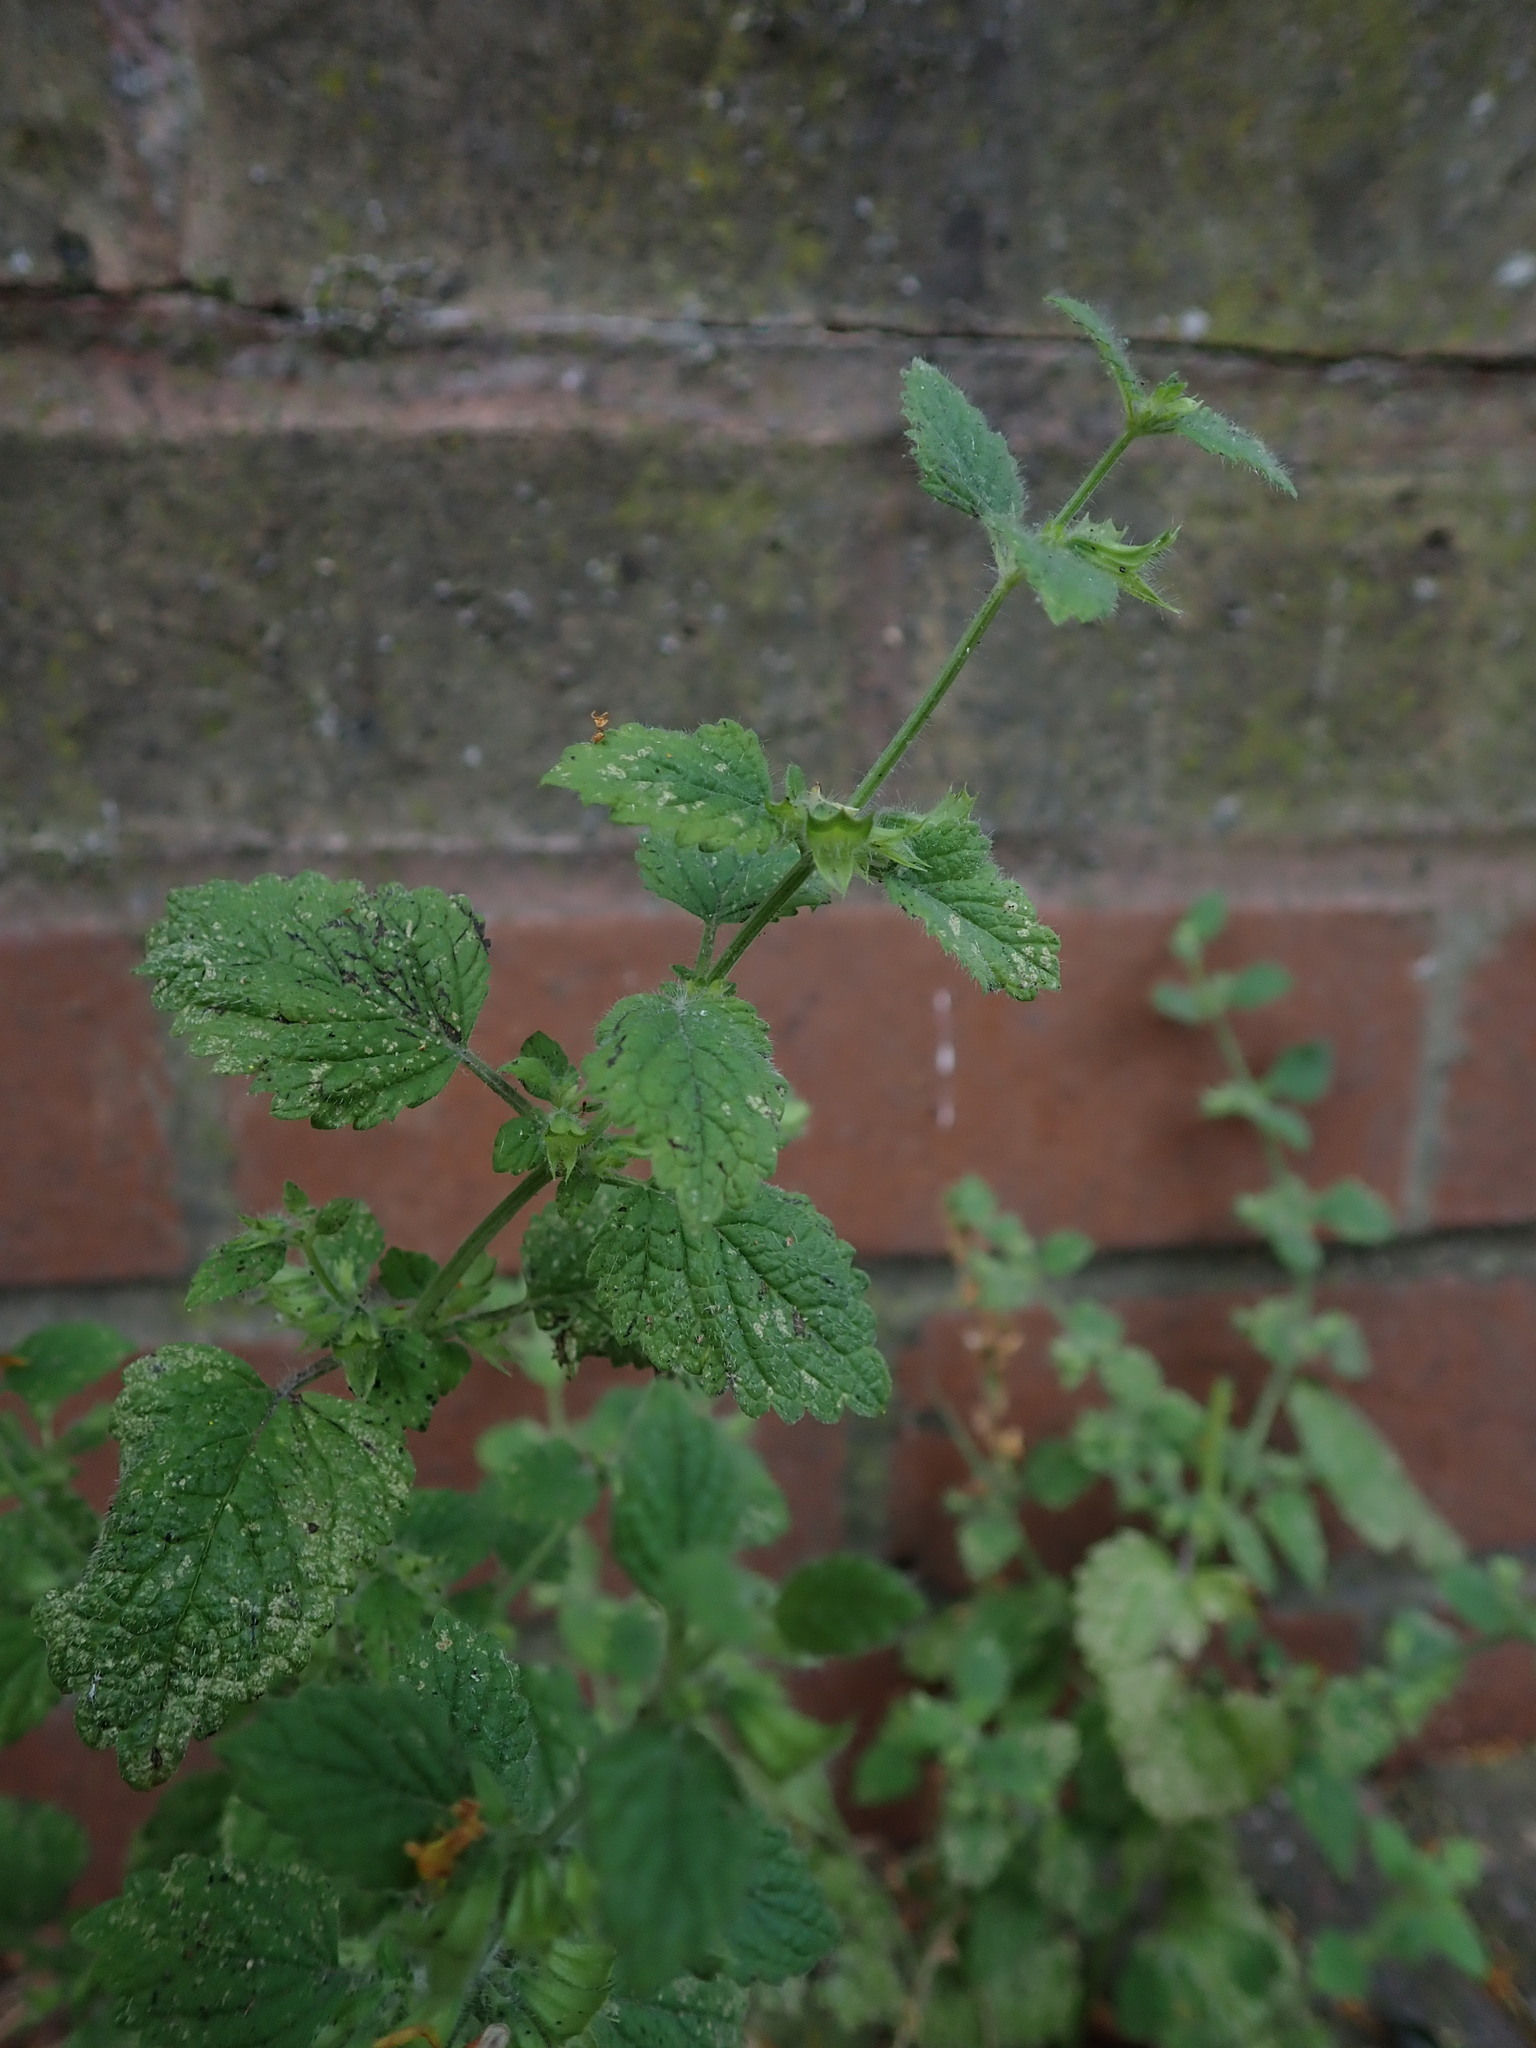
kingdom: Plantae
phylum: Tracheophyta
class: Magnoliopsida
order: Lamiales
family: Lamiaceae
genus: Melissa
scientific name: Melissa officinalis
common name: Balm
